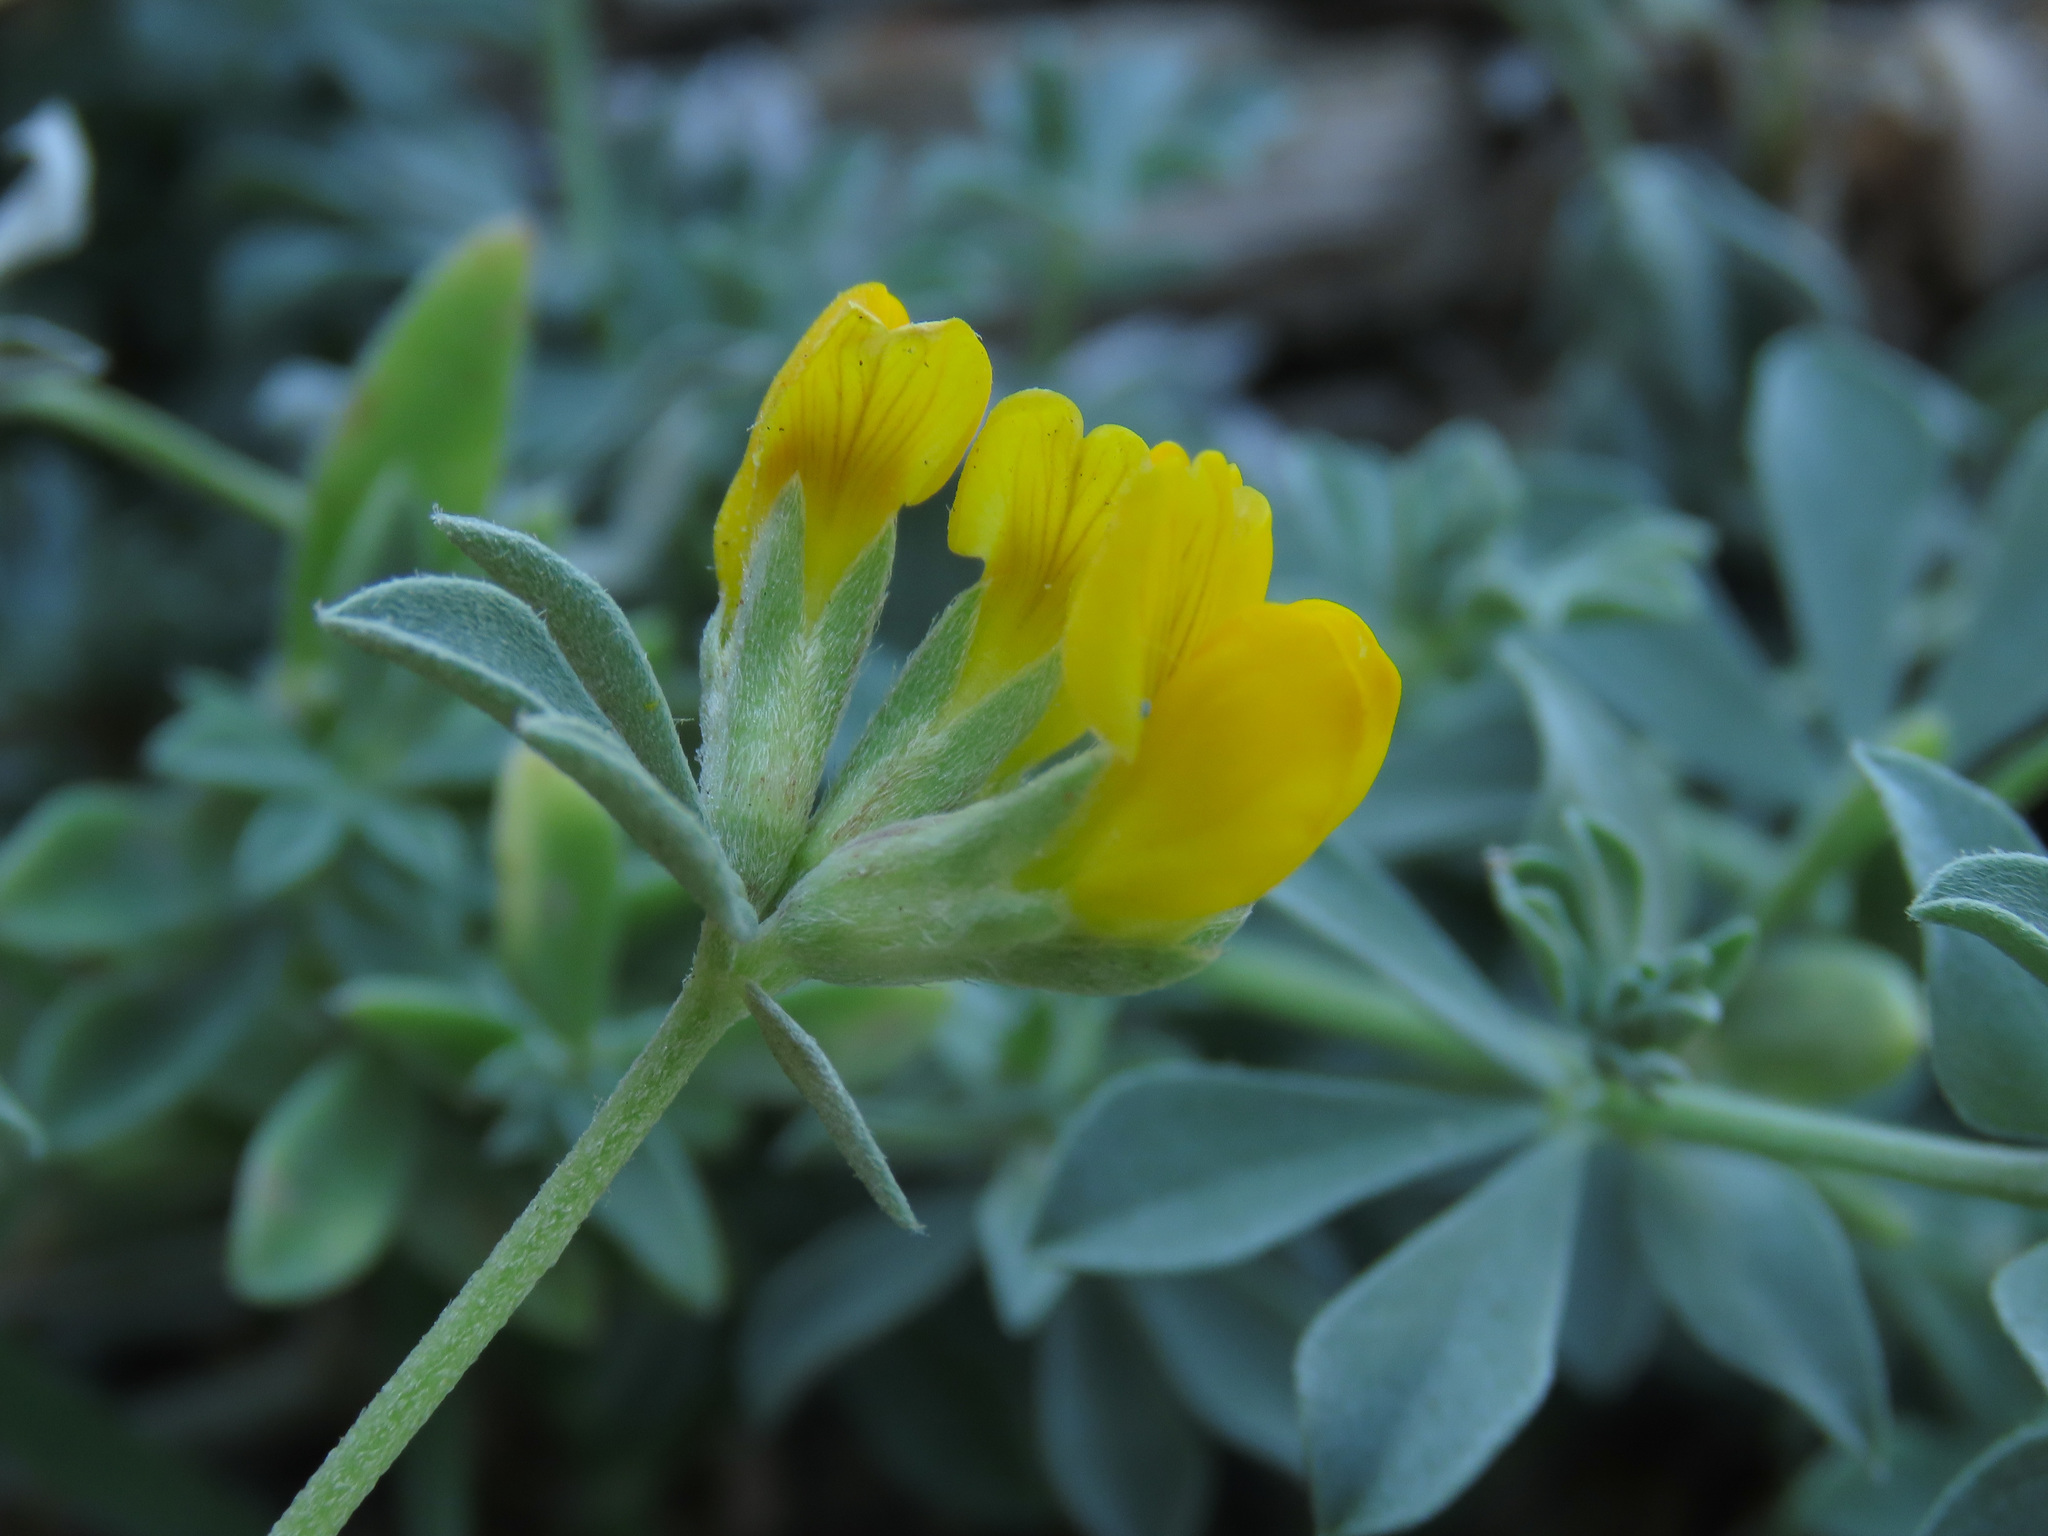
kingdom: Plantae
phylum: Tracheophyta
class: Magnoliopsida
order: Fabales
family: Fabaceae
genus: Lotus
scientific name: Lotus creticus
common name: Cretan bird's-foot trefoil
